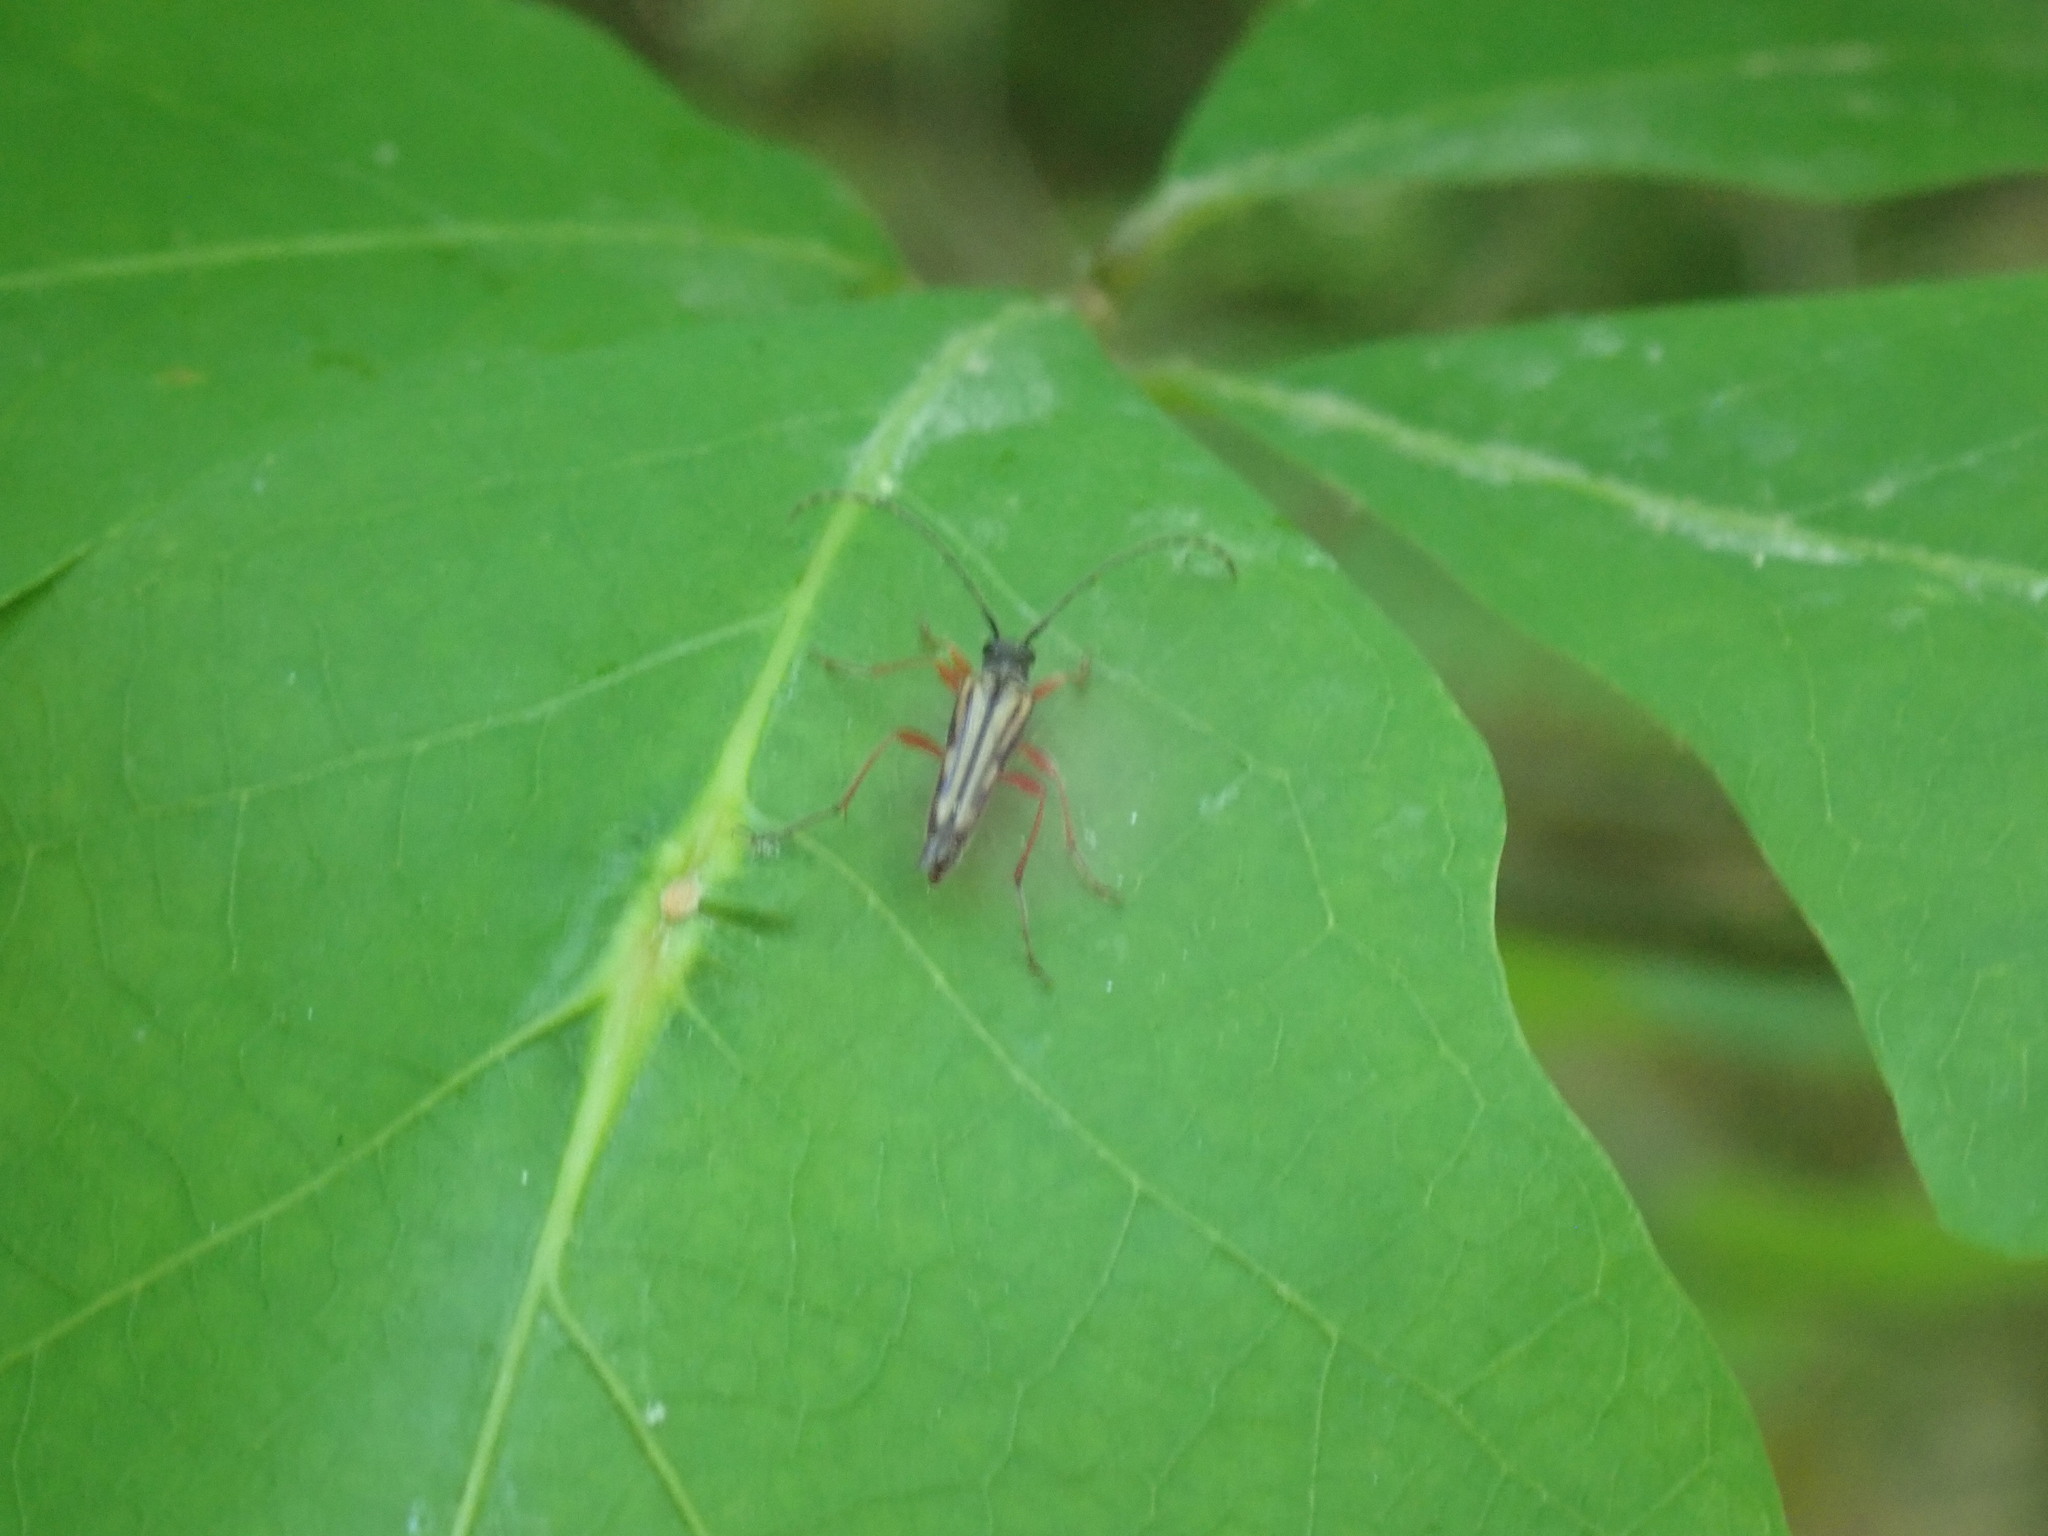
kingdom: Animalia
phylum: Arthropoda
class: Insecta
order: Coleoptera
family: Cerambycidae
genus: Analeptura
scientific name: Analeptura lineola
